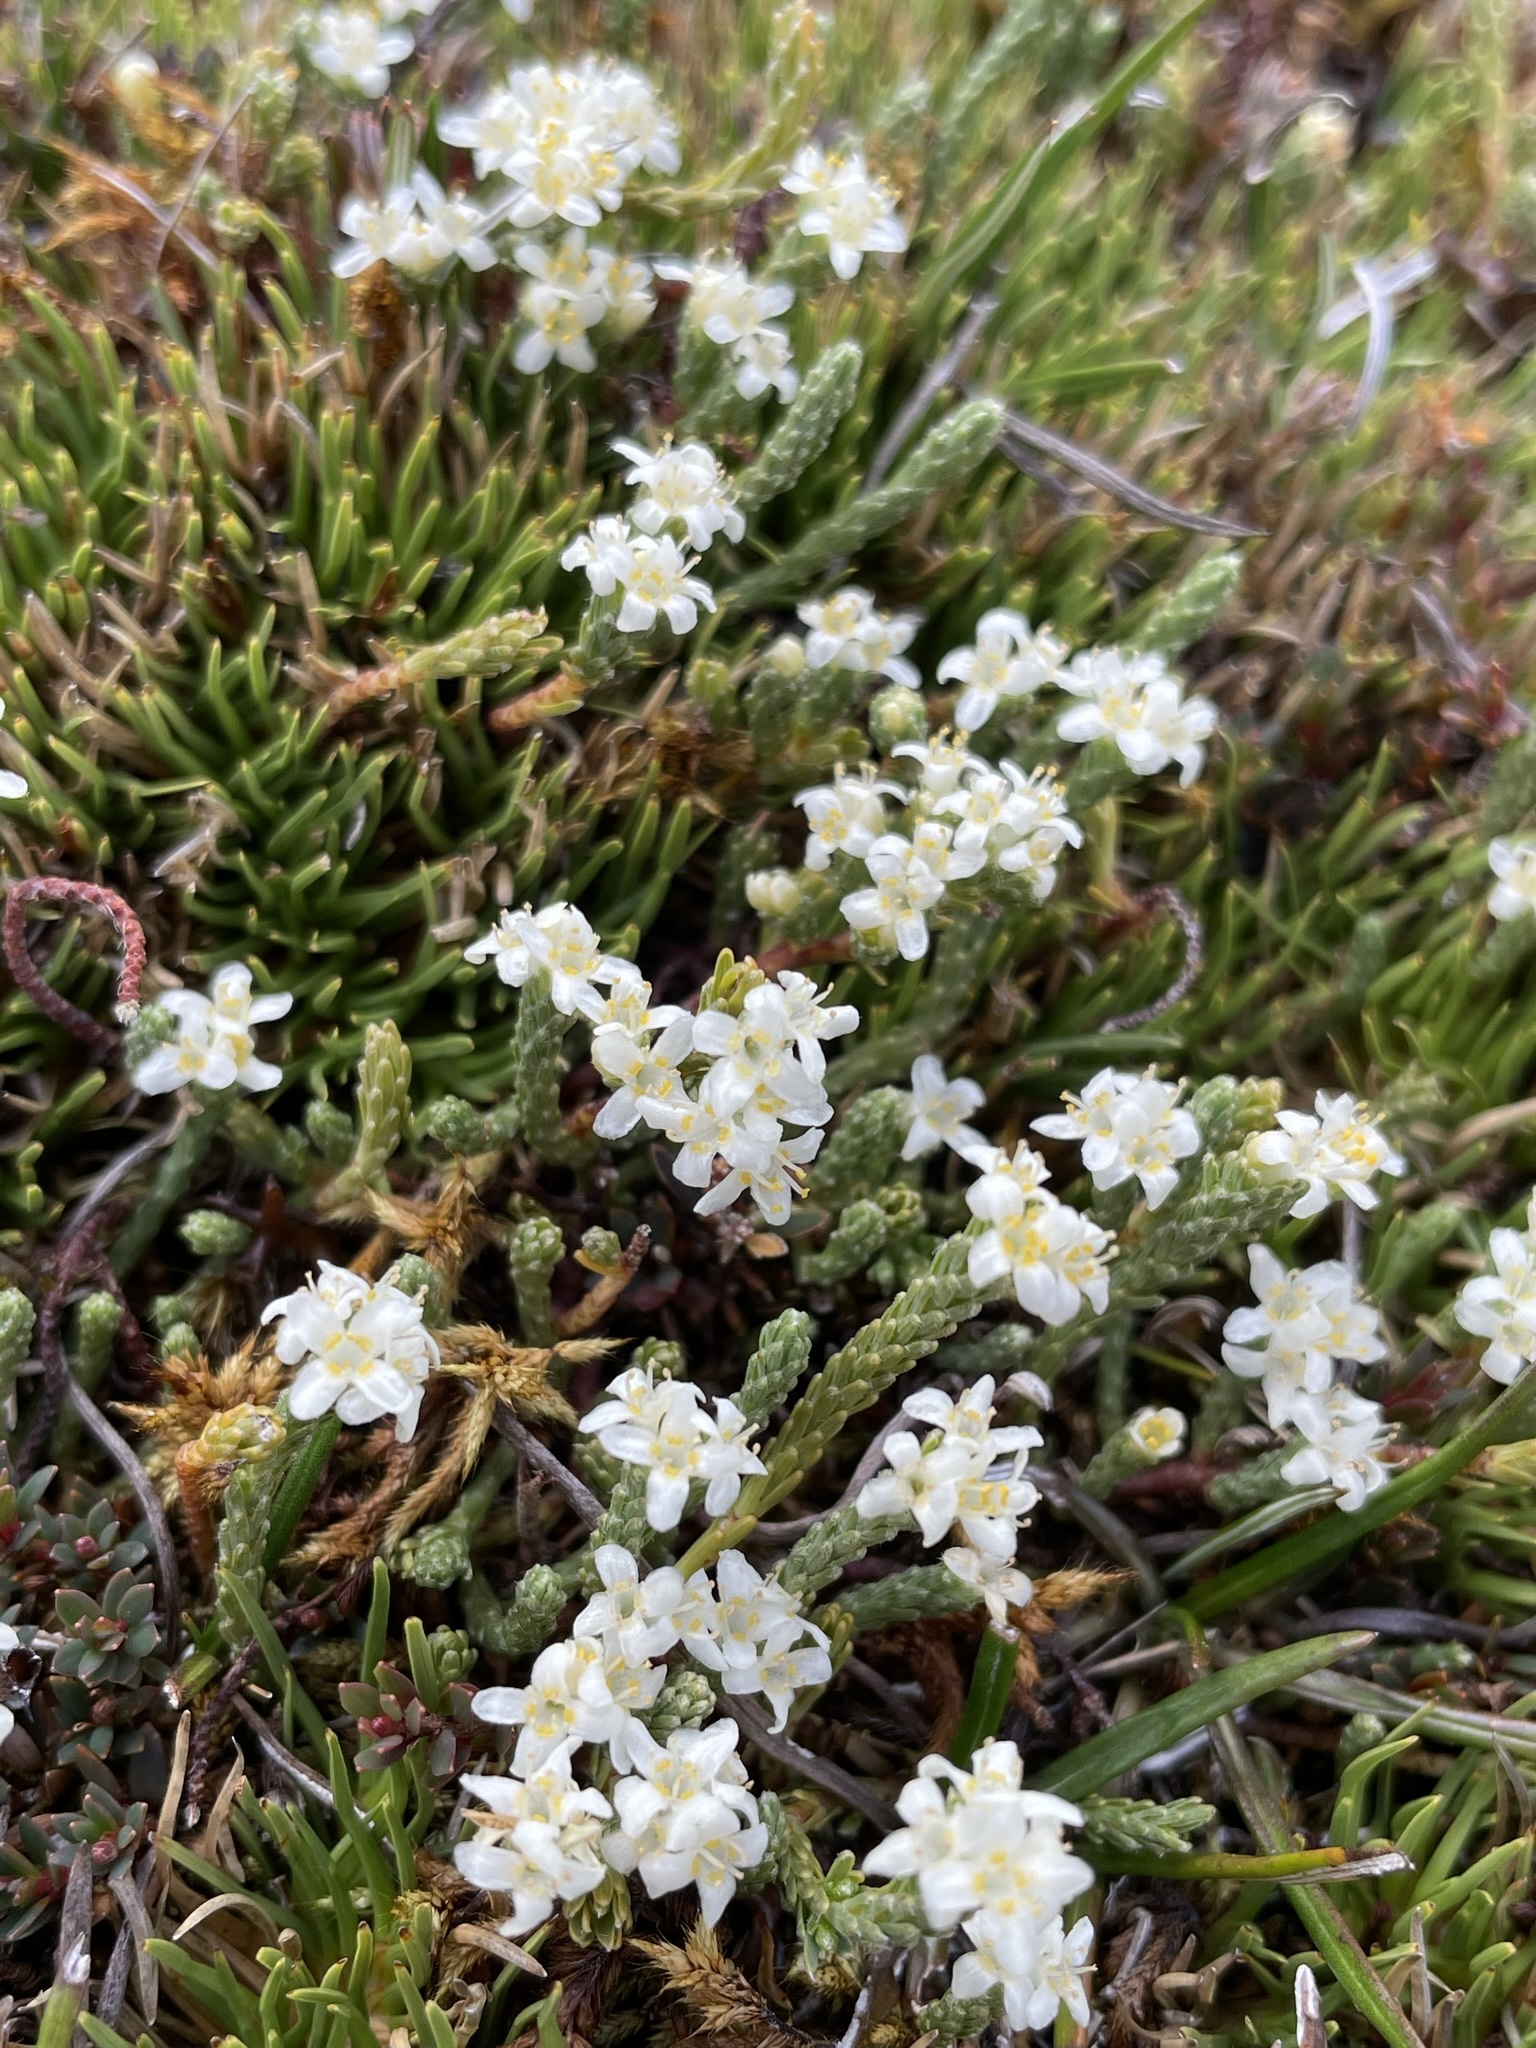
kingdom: Plantae
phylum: Tracheophyta
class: Magnoliopsida
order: Malvales
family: Thymelaeaceae
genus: Kelleria
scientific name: Kelleria dieffenbachii
